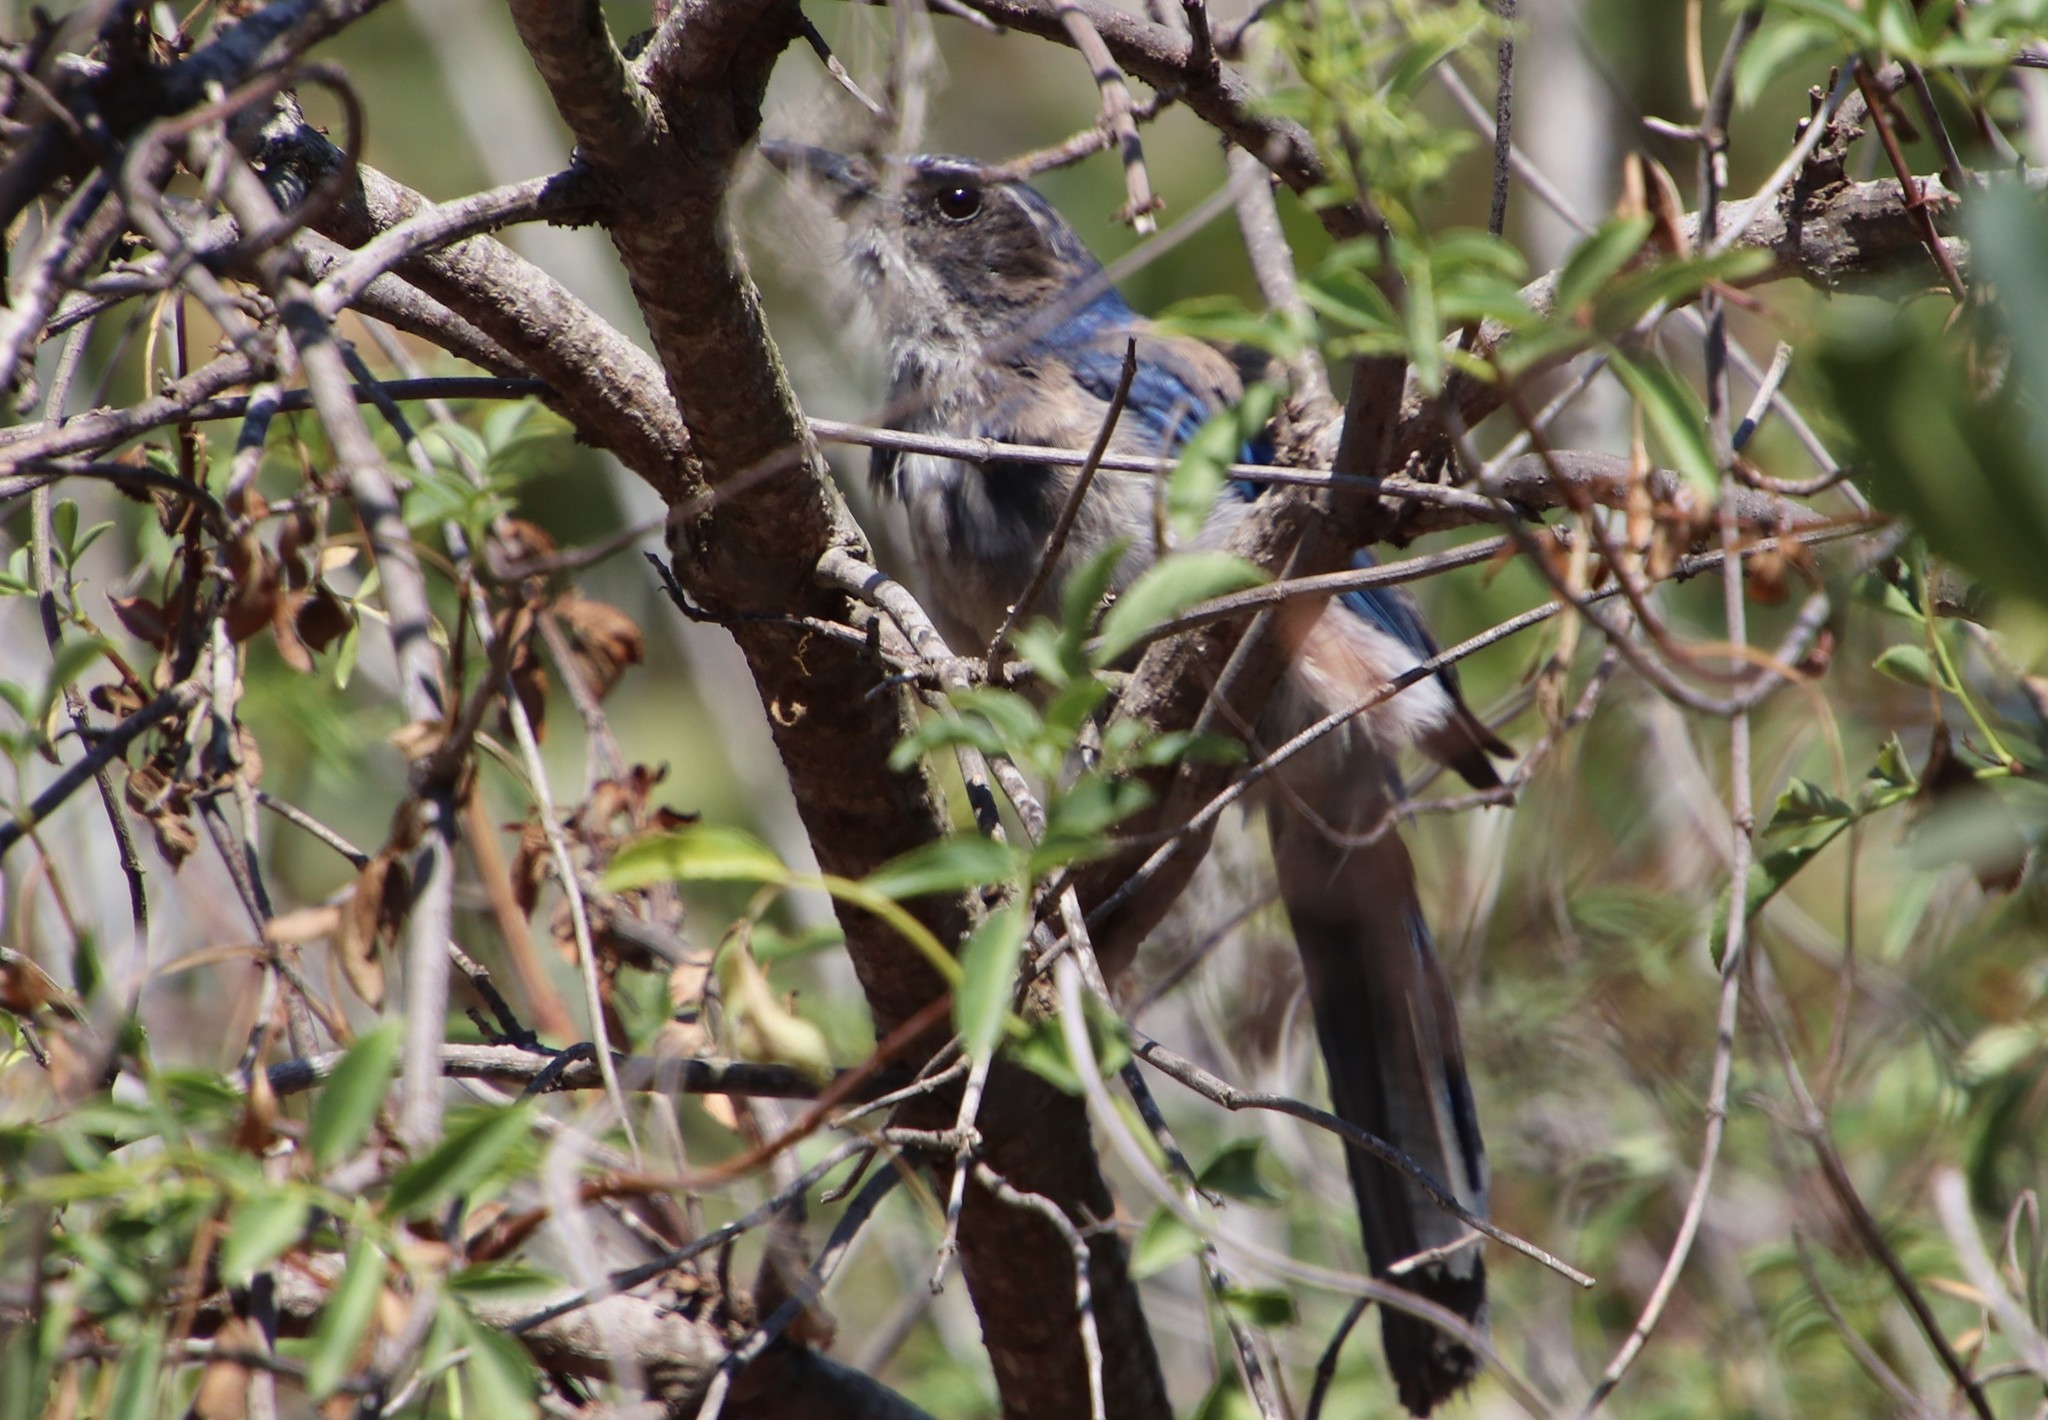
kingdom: Animalia
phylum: Chordata
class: Aves
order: Passeriformes
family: Corvidae
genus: Aphelocoma
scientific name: Aphelocoma californica
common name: California scrub-jay
